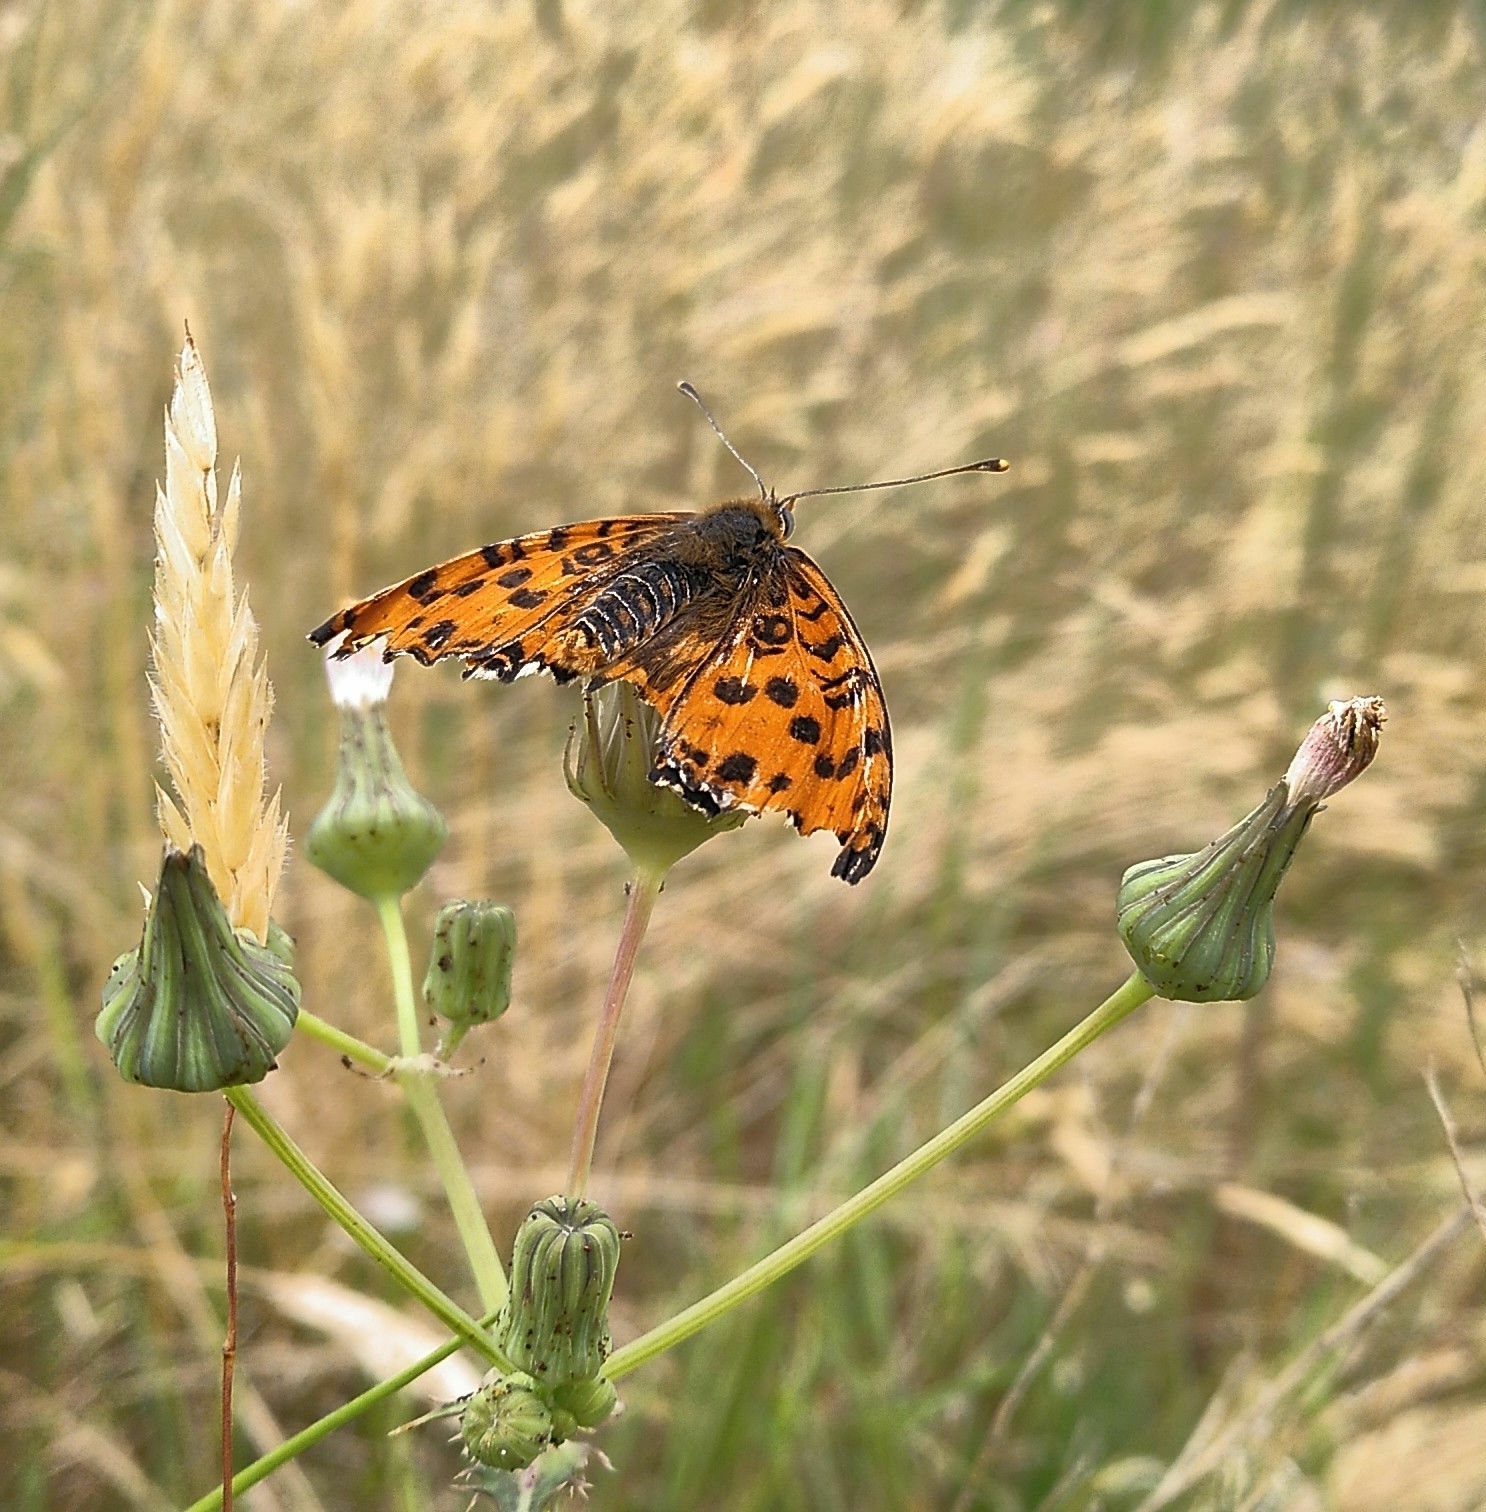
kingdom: Animalia
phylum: Arthropoda
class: Insecta
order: Lepidoptera
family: Nymphalidae
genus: Melitaea
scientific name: Melitaea didyma
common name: Spotted fritillary
